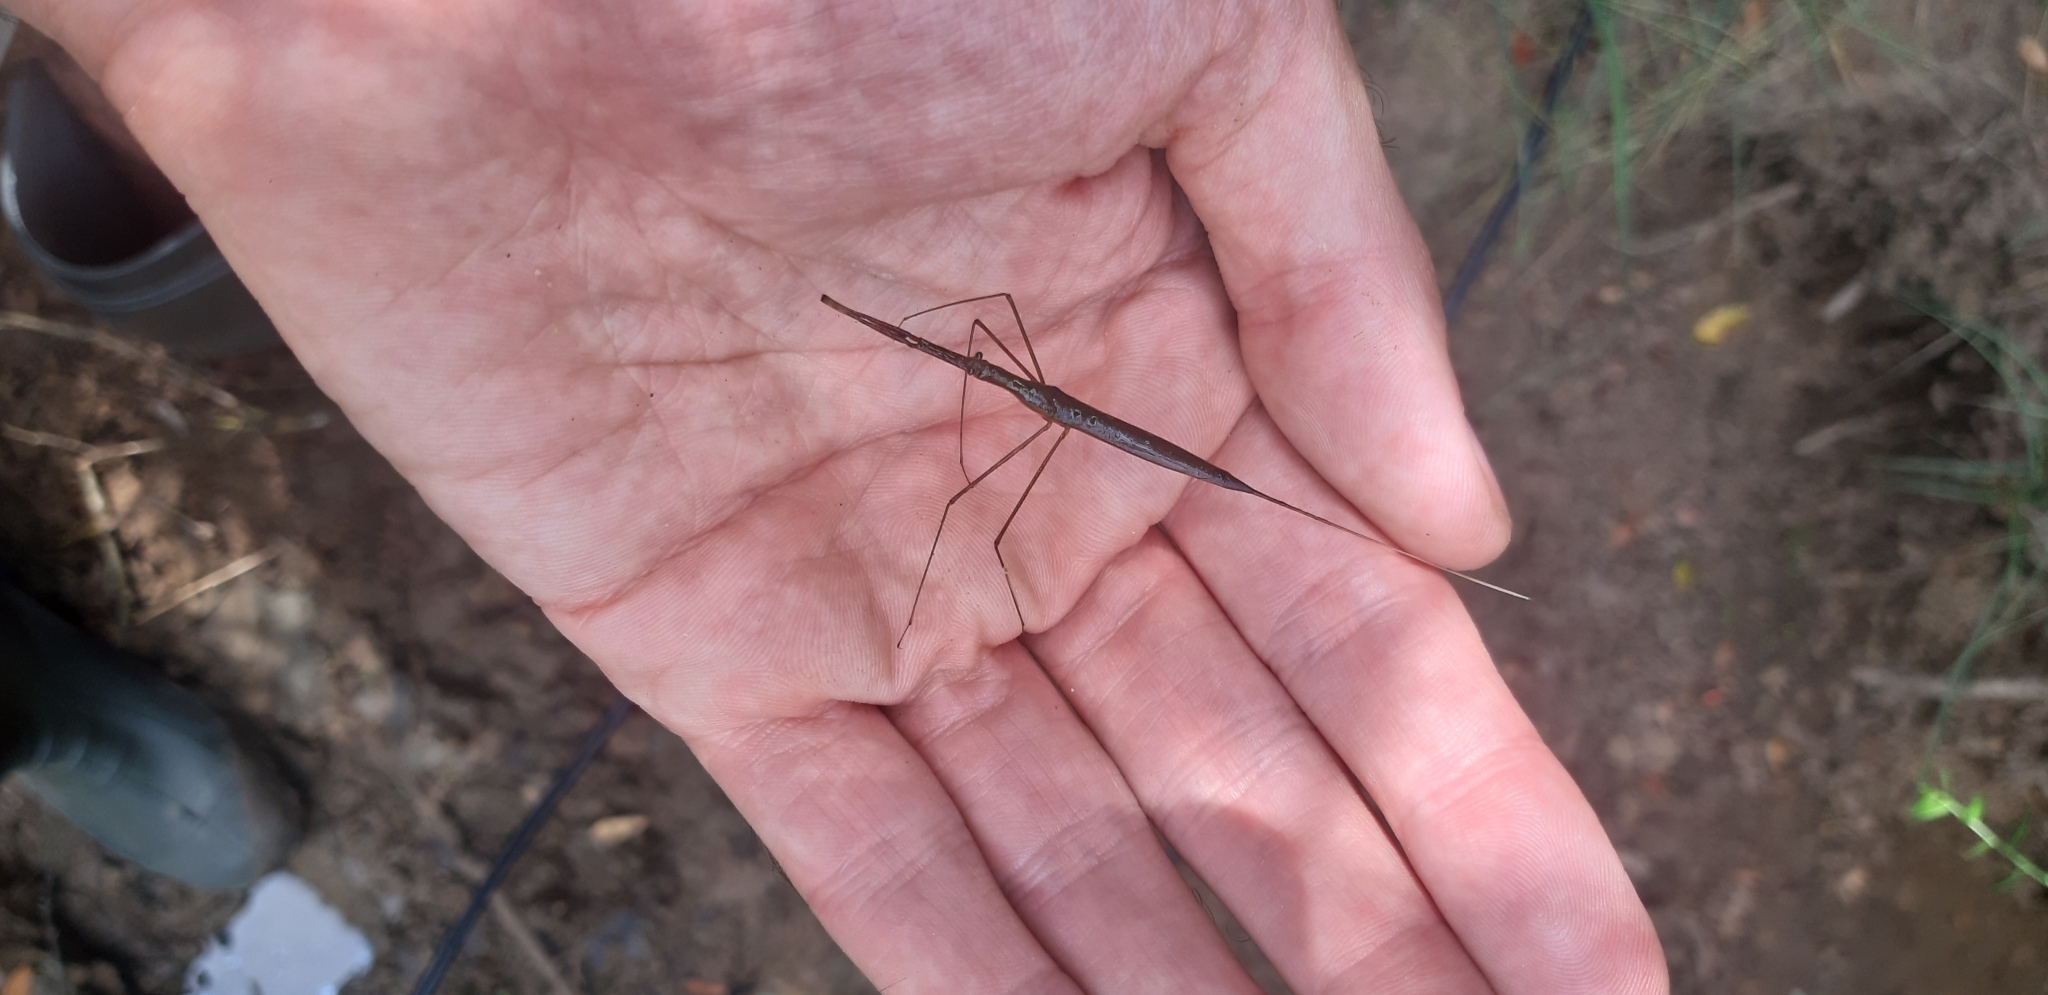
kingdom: Animalia
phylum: Arthropoda
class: Insecta
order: Hemiptera
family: Nepidae
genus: Ranatra
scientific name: Ranatra linearis
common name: Water stick insect
